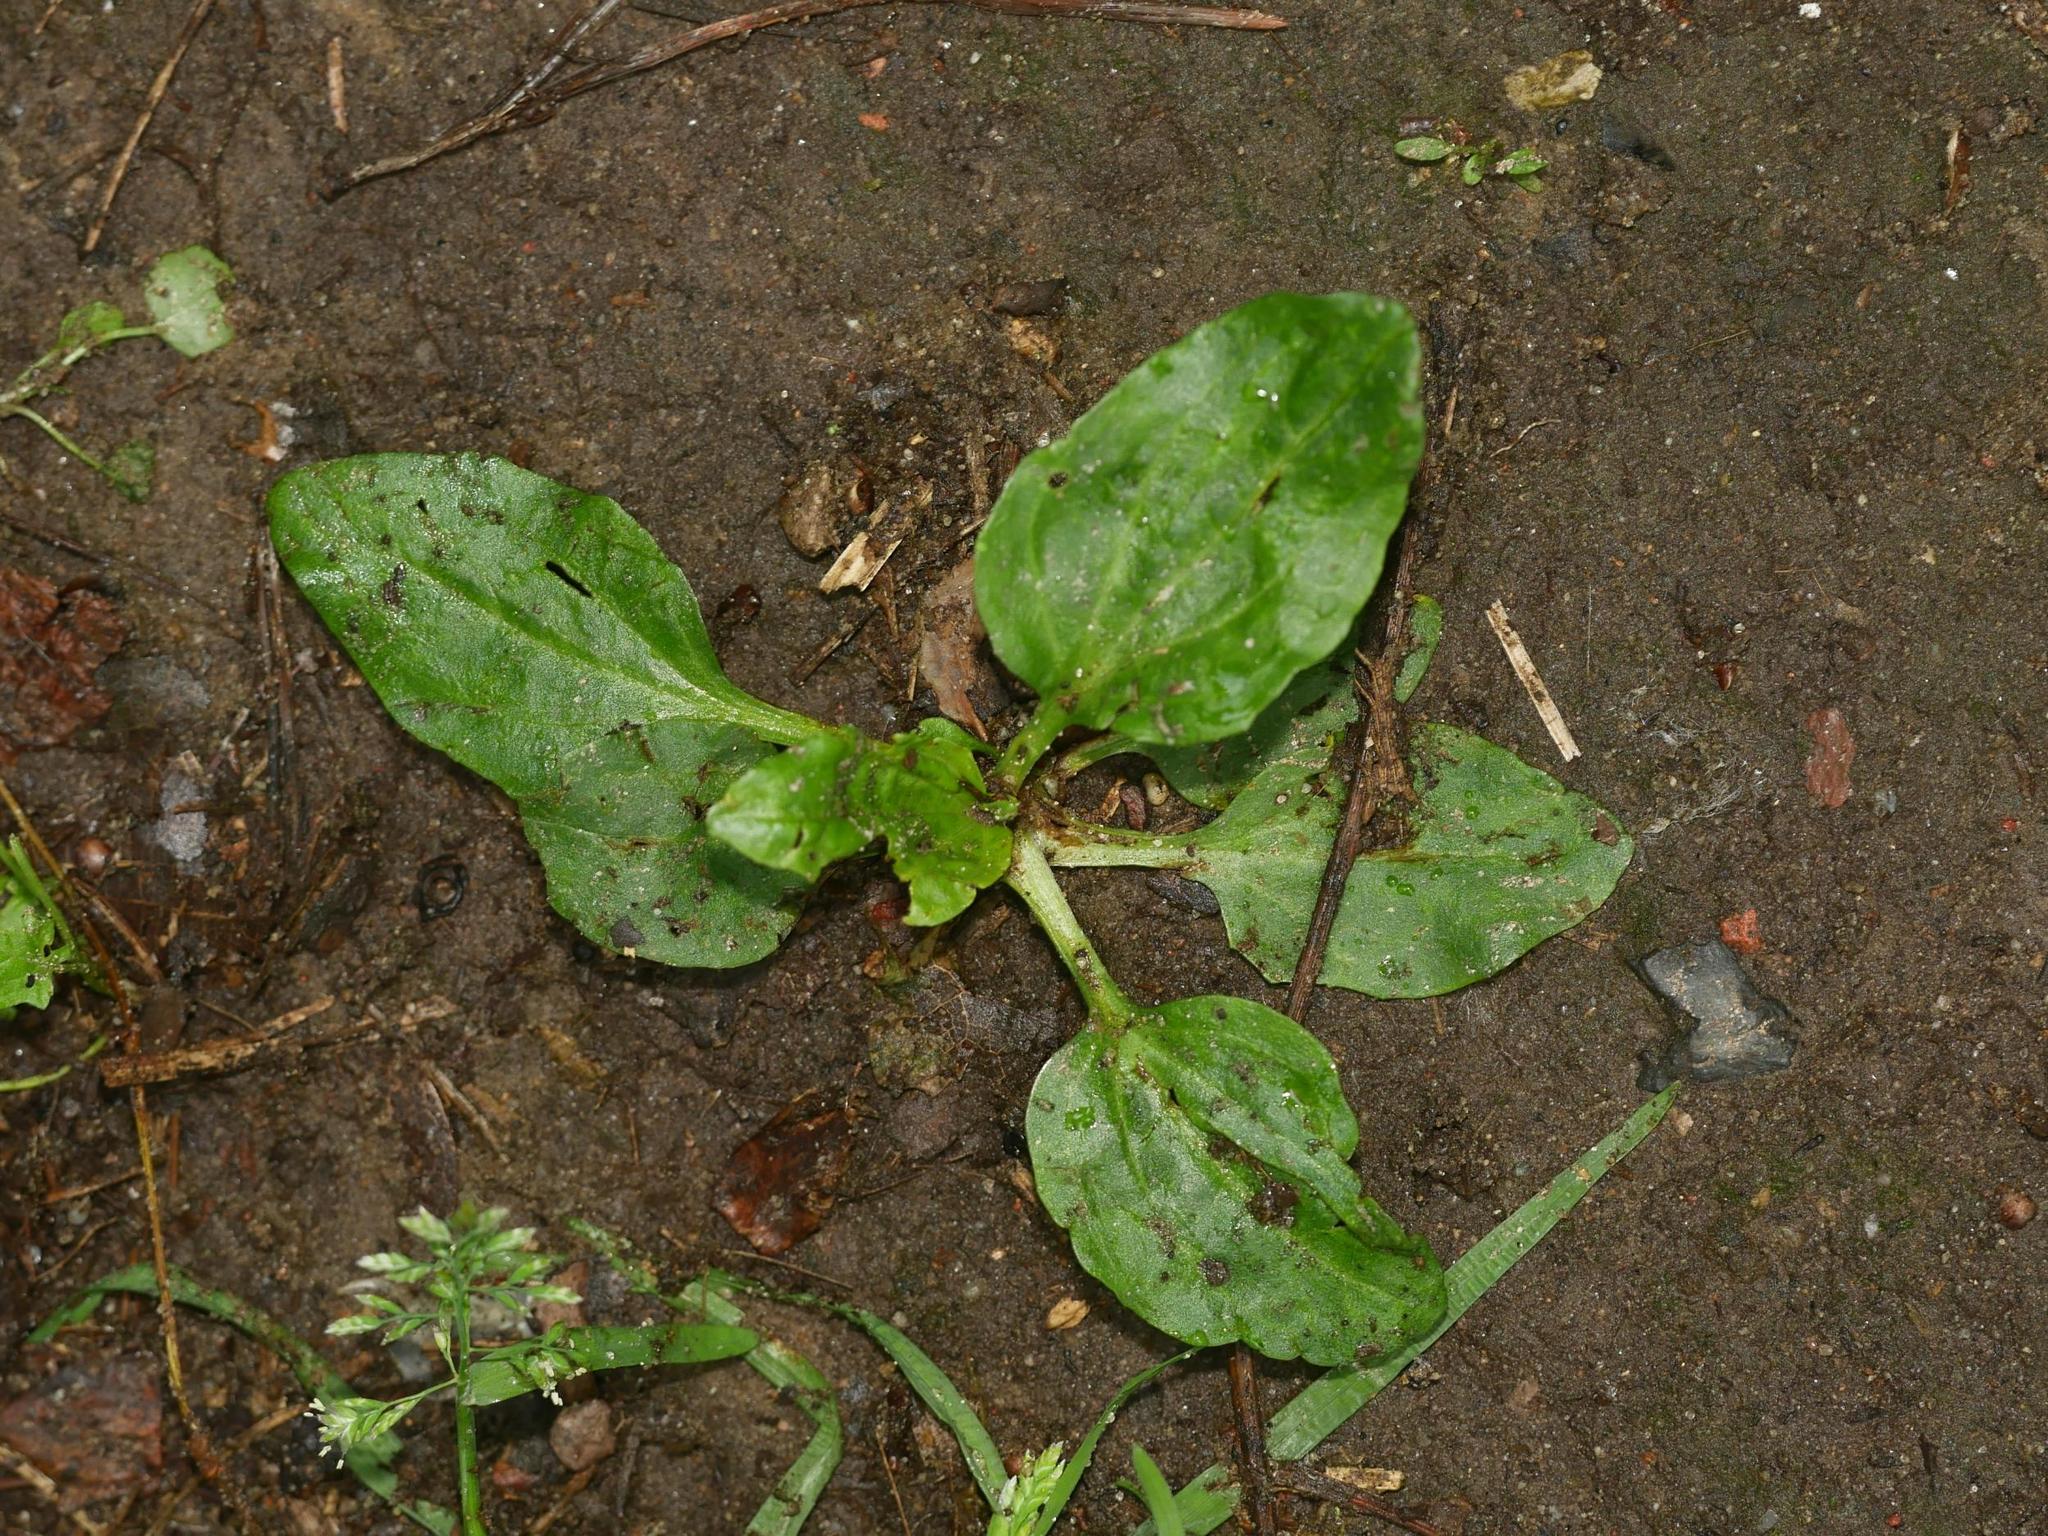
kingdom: Plantae
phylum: Tracheophyta
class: Magnoliopsida
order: Lamiales
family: Plantaginaceae
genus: Plantago
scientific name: Plantago major
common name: Common plantain
